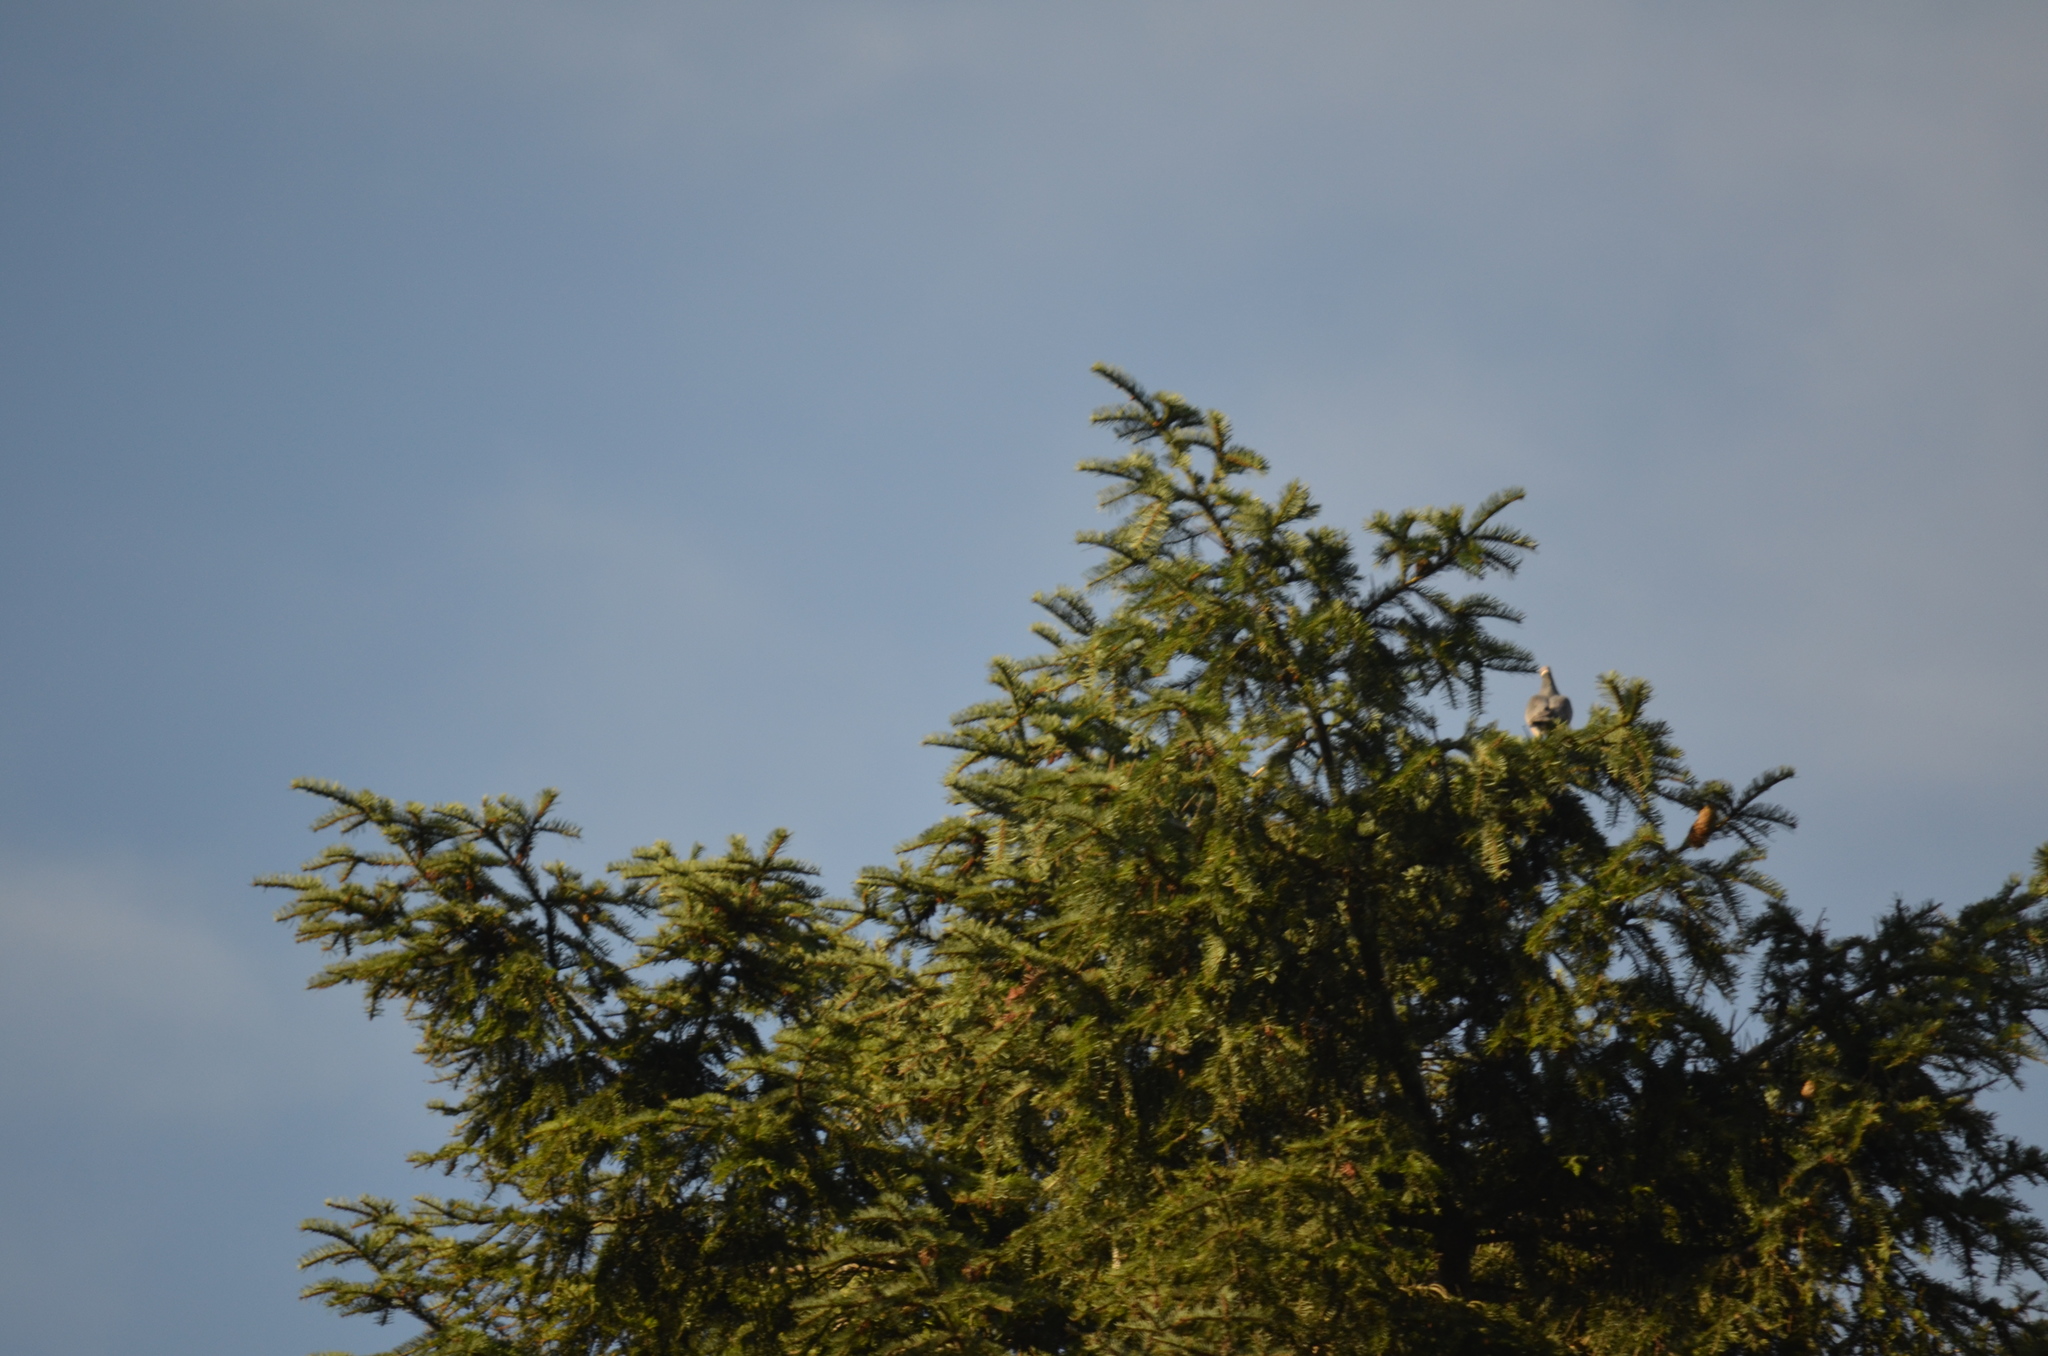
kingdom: Animalia
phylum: Chordata
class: Aves
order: Columbiformes
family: Columbidae
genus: Patagioenas
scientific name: Patagioenas fasciata
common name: Band-tailed pigeon
